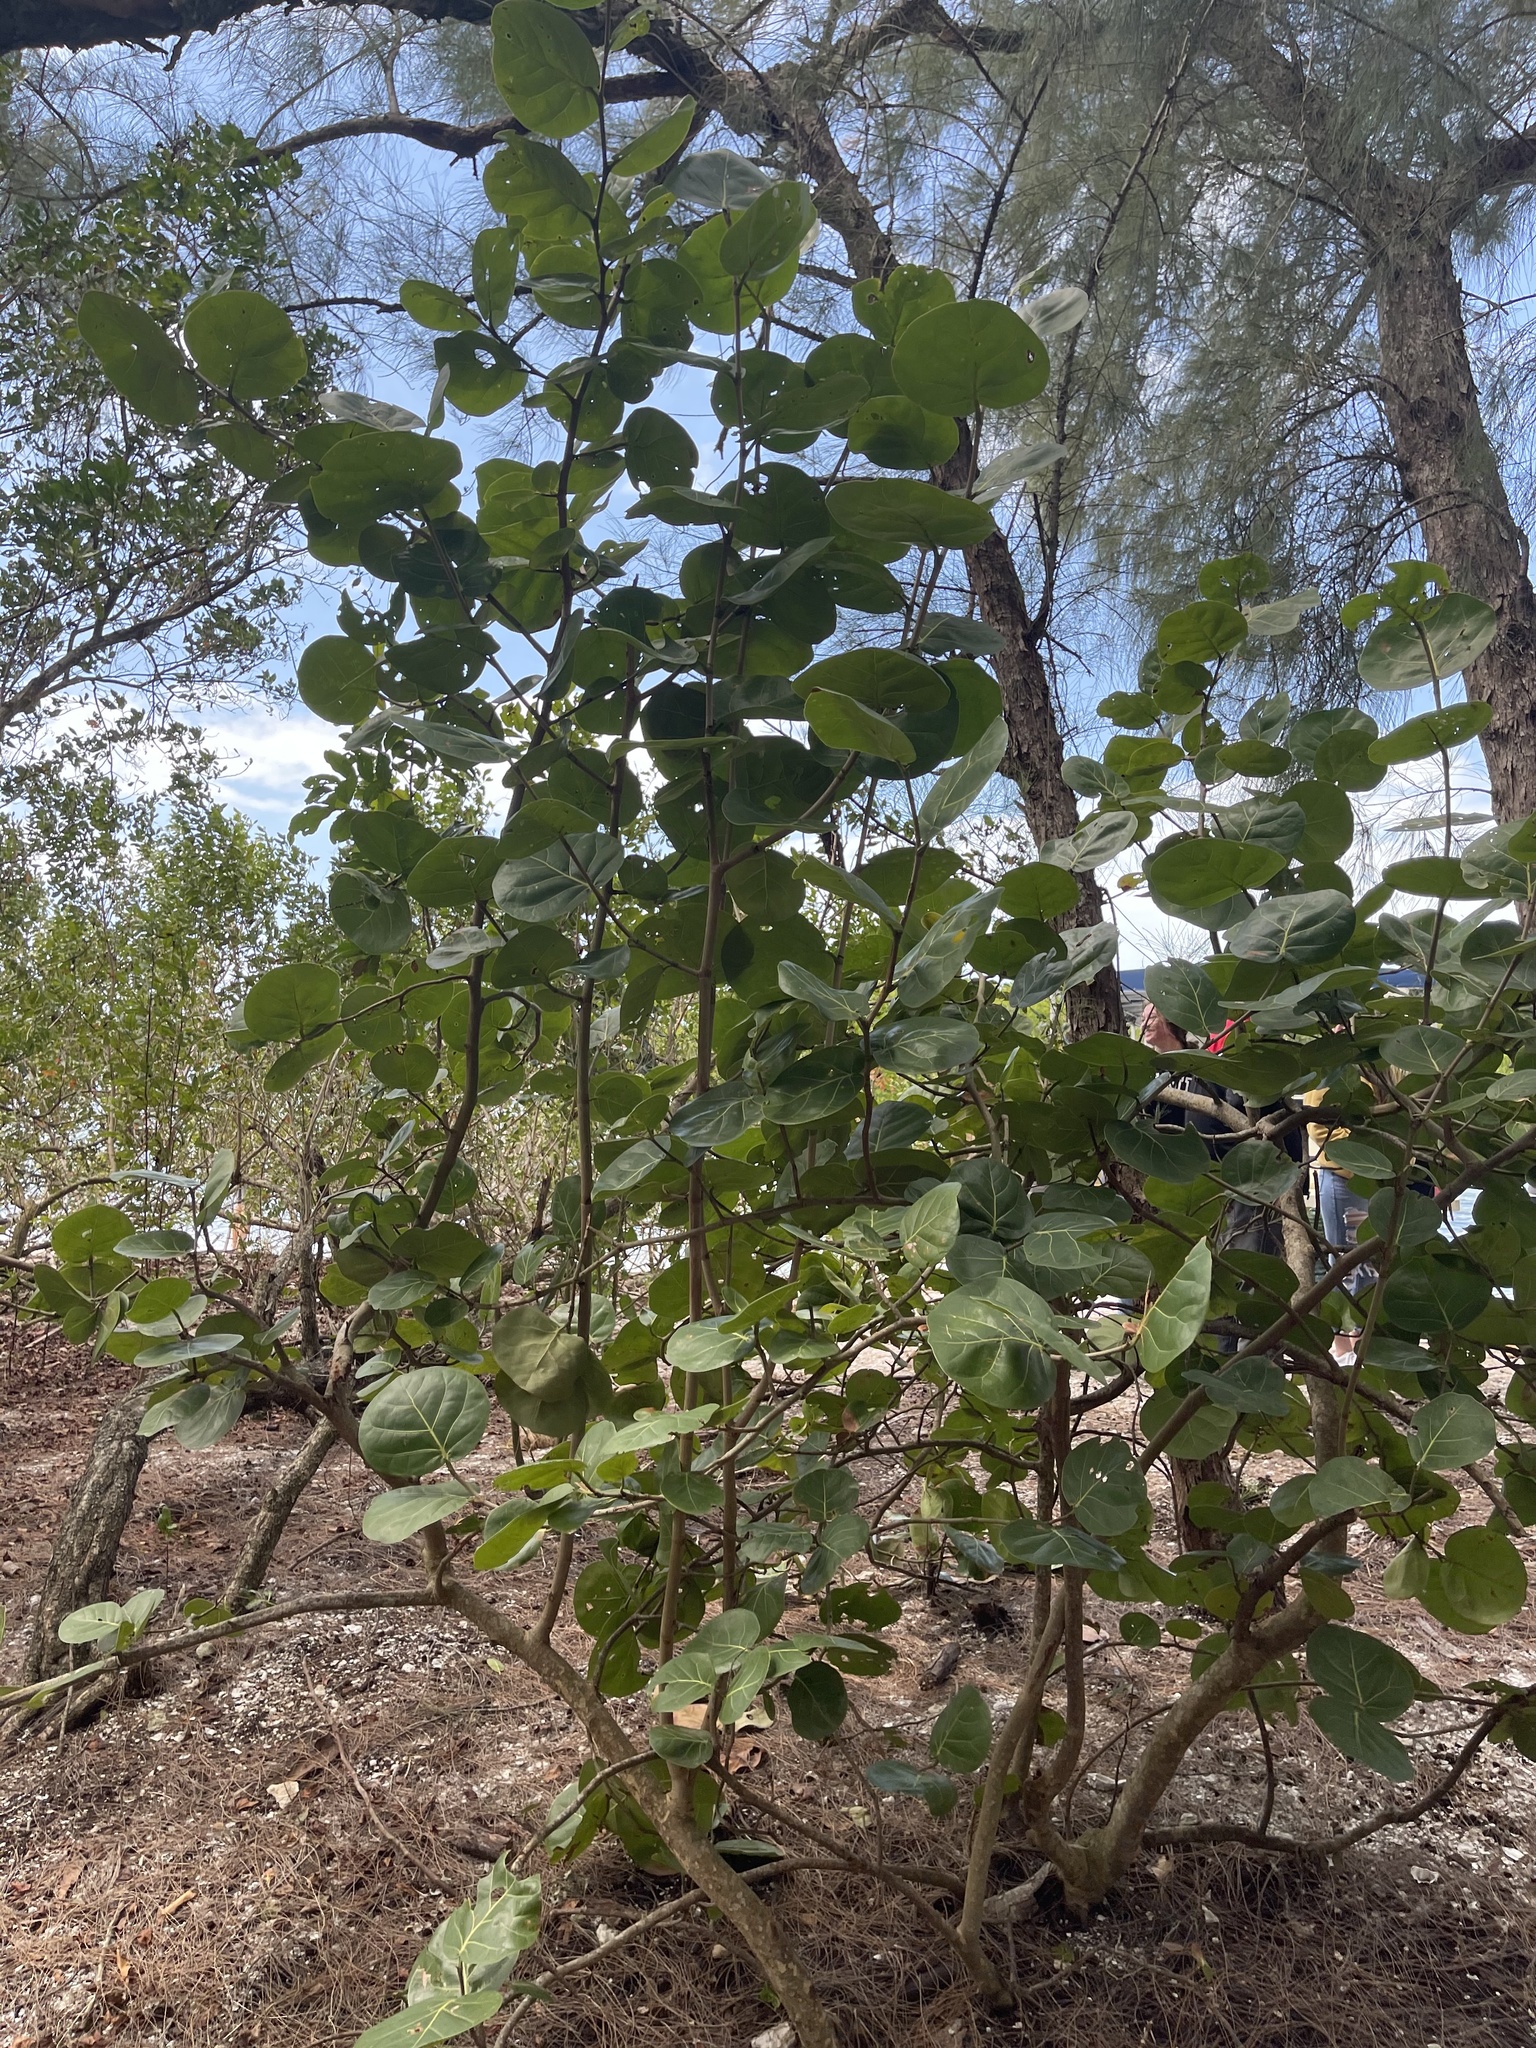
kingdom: Plantae
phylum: Tracheophyta
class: Magnoliopsida
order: Caryophyllales
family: Polygonaceae
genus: Coccoloba
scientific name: Coccoloba uvifera
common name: Seagrape
